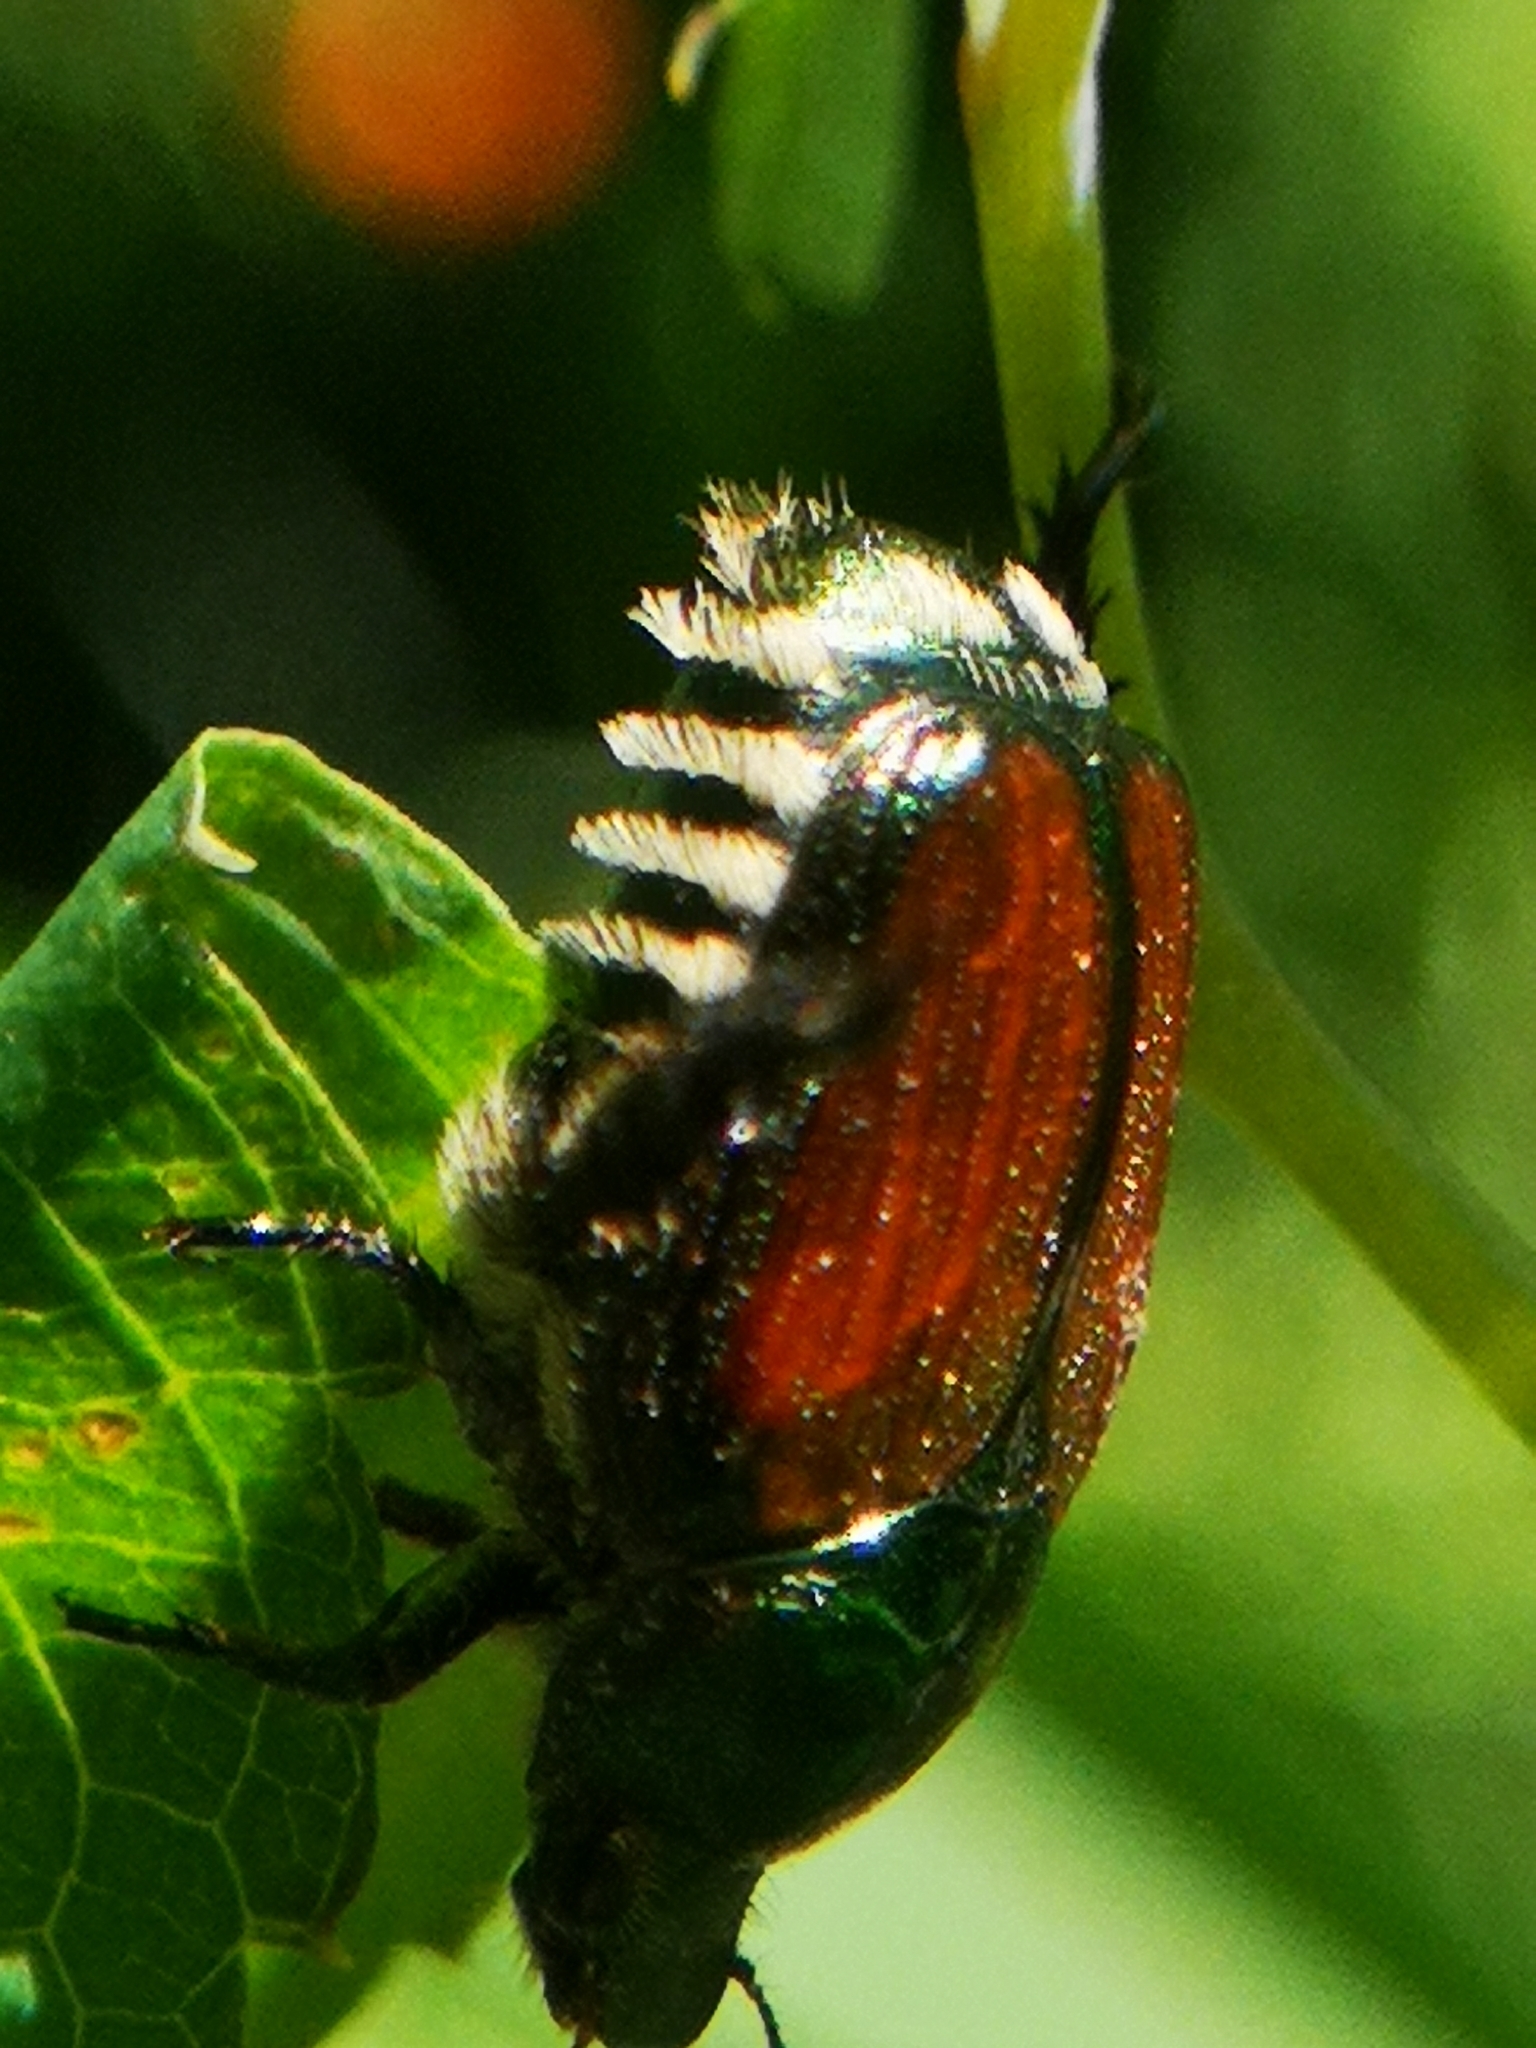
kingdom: Animalia
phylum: Arthropoda
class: Insecta
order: Coleoptera
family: Scarabaeidae
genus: Popillia
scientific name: Popillia japonica
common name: Japanese beetle
